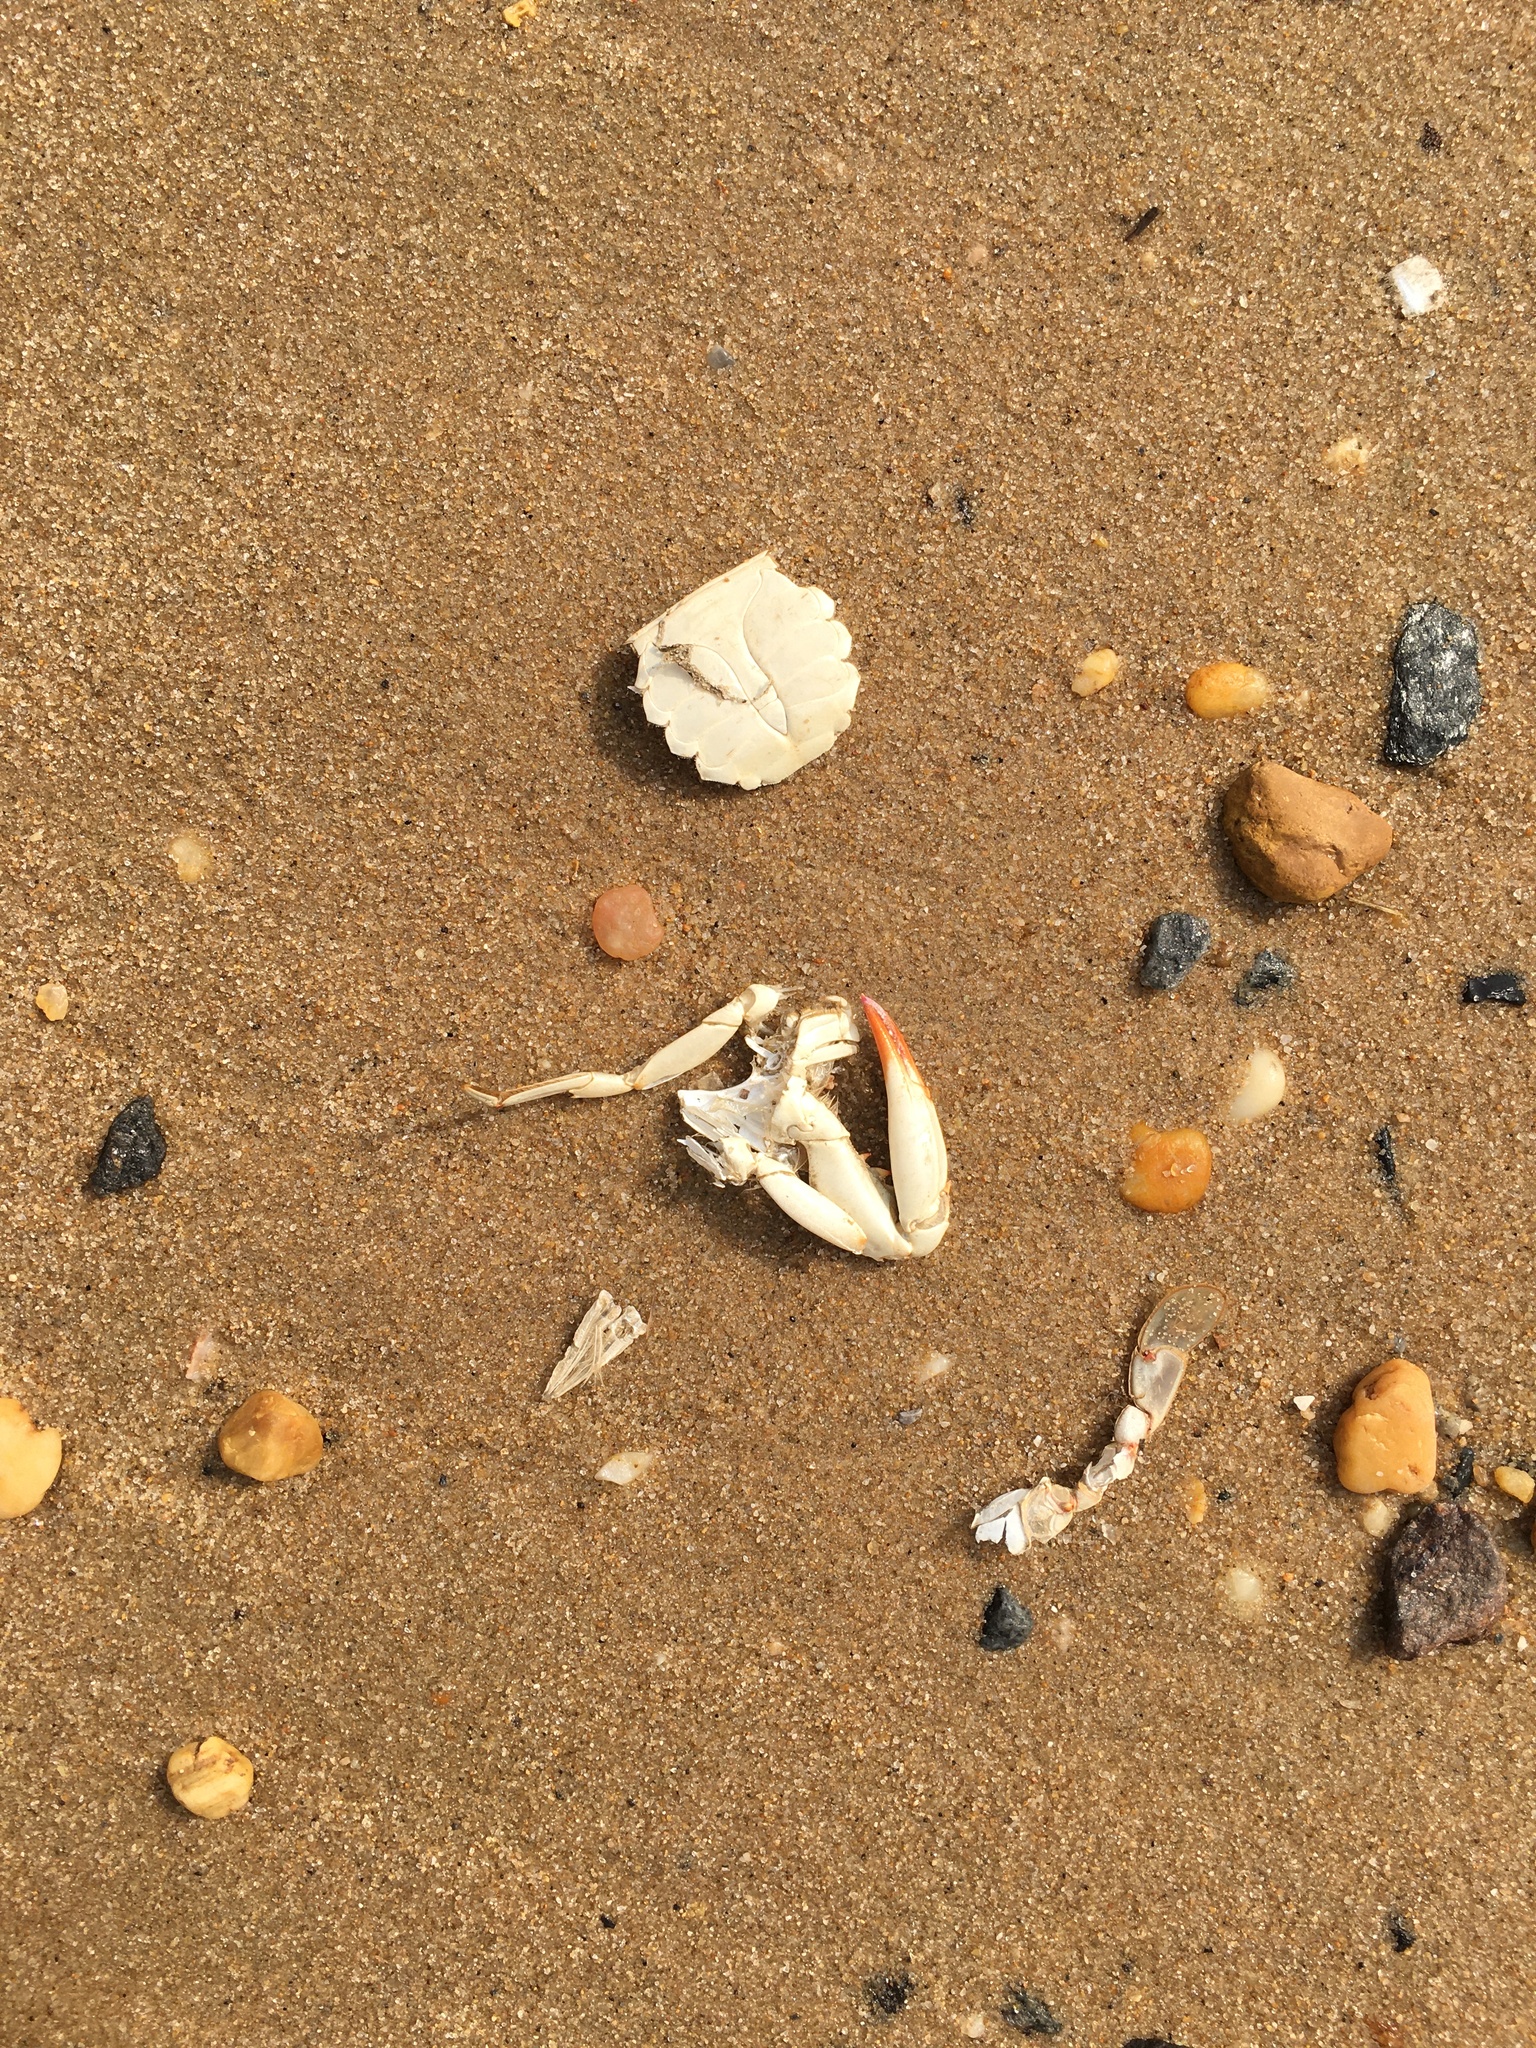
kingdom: Animalia
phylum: Arthropoda
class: Malacostraca
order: Decapoda
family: Portunidae
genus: Callinectes
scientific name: Callinectes sapidus
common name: Blue crab
